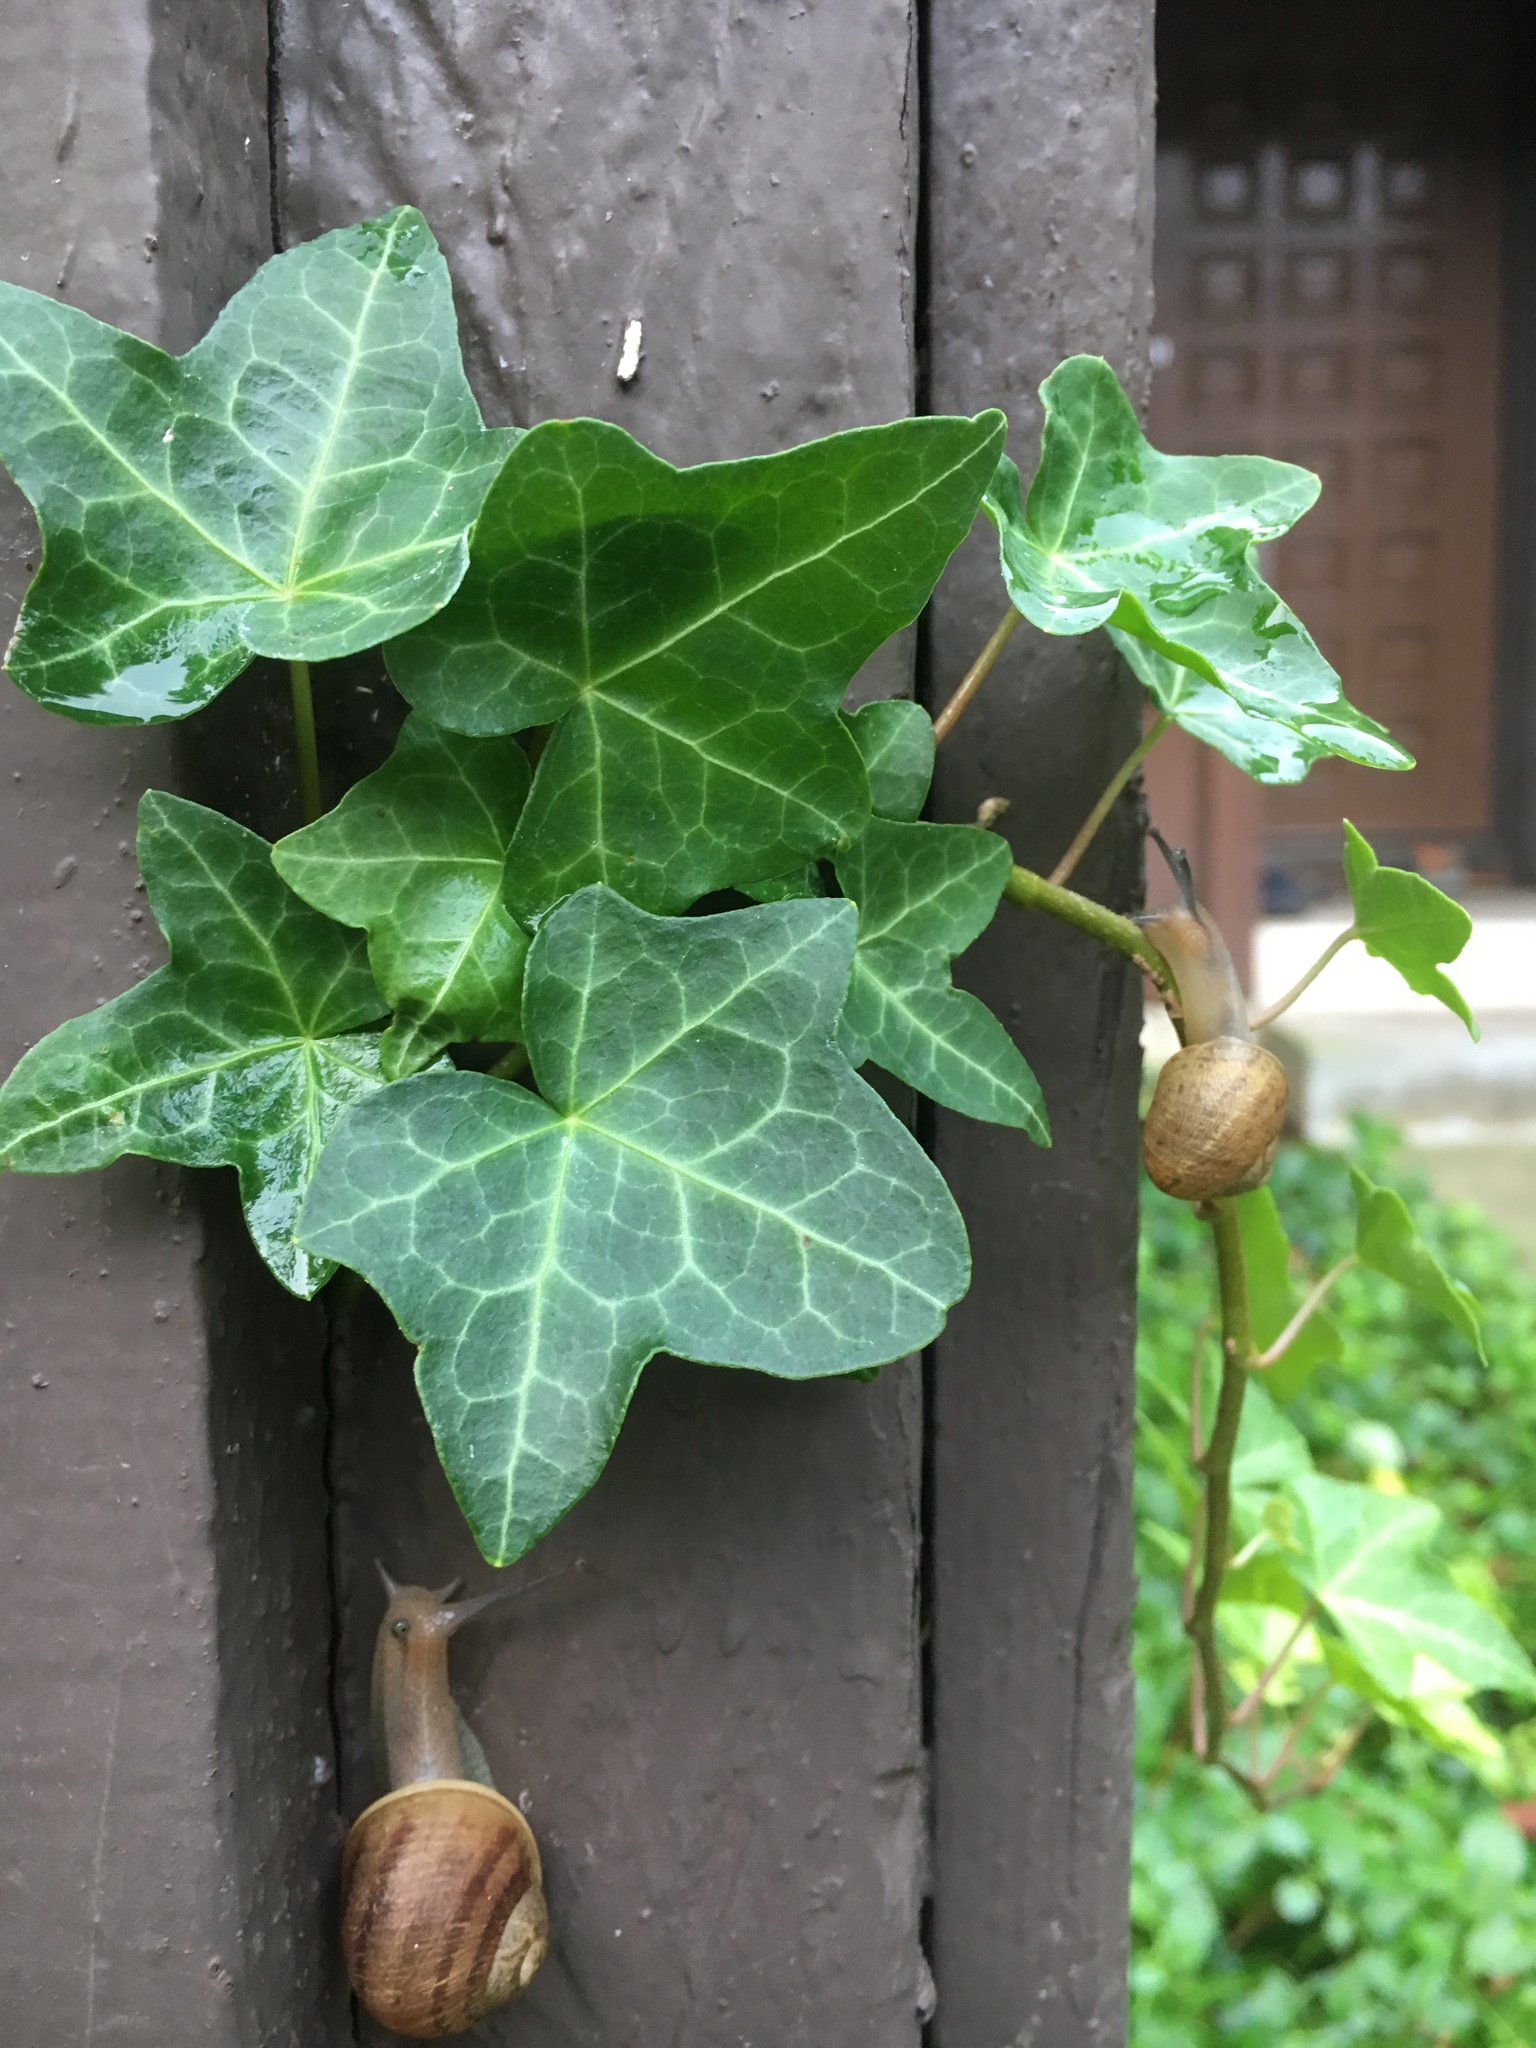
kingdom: Animalia
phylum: Mollusca
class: Gastropoda
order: Stylommatophora
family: Helicidae
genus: Cornu
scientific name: Cornu aspersum
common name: Brown garden snail
